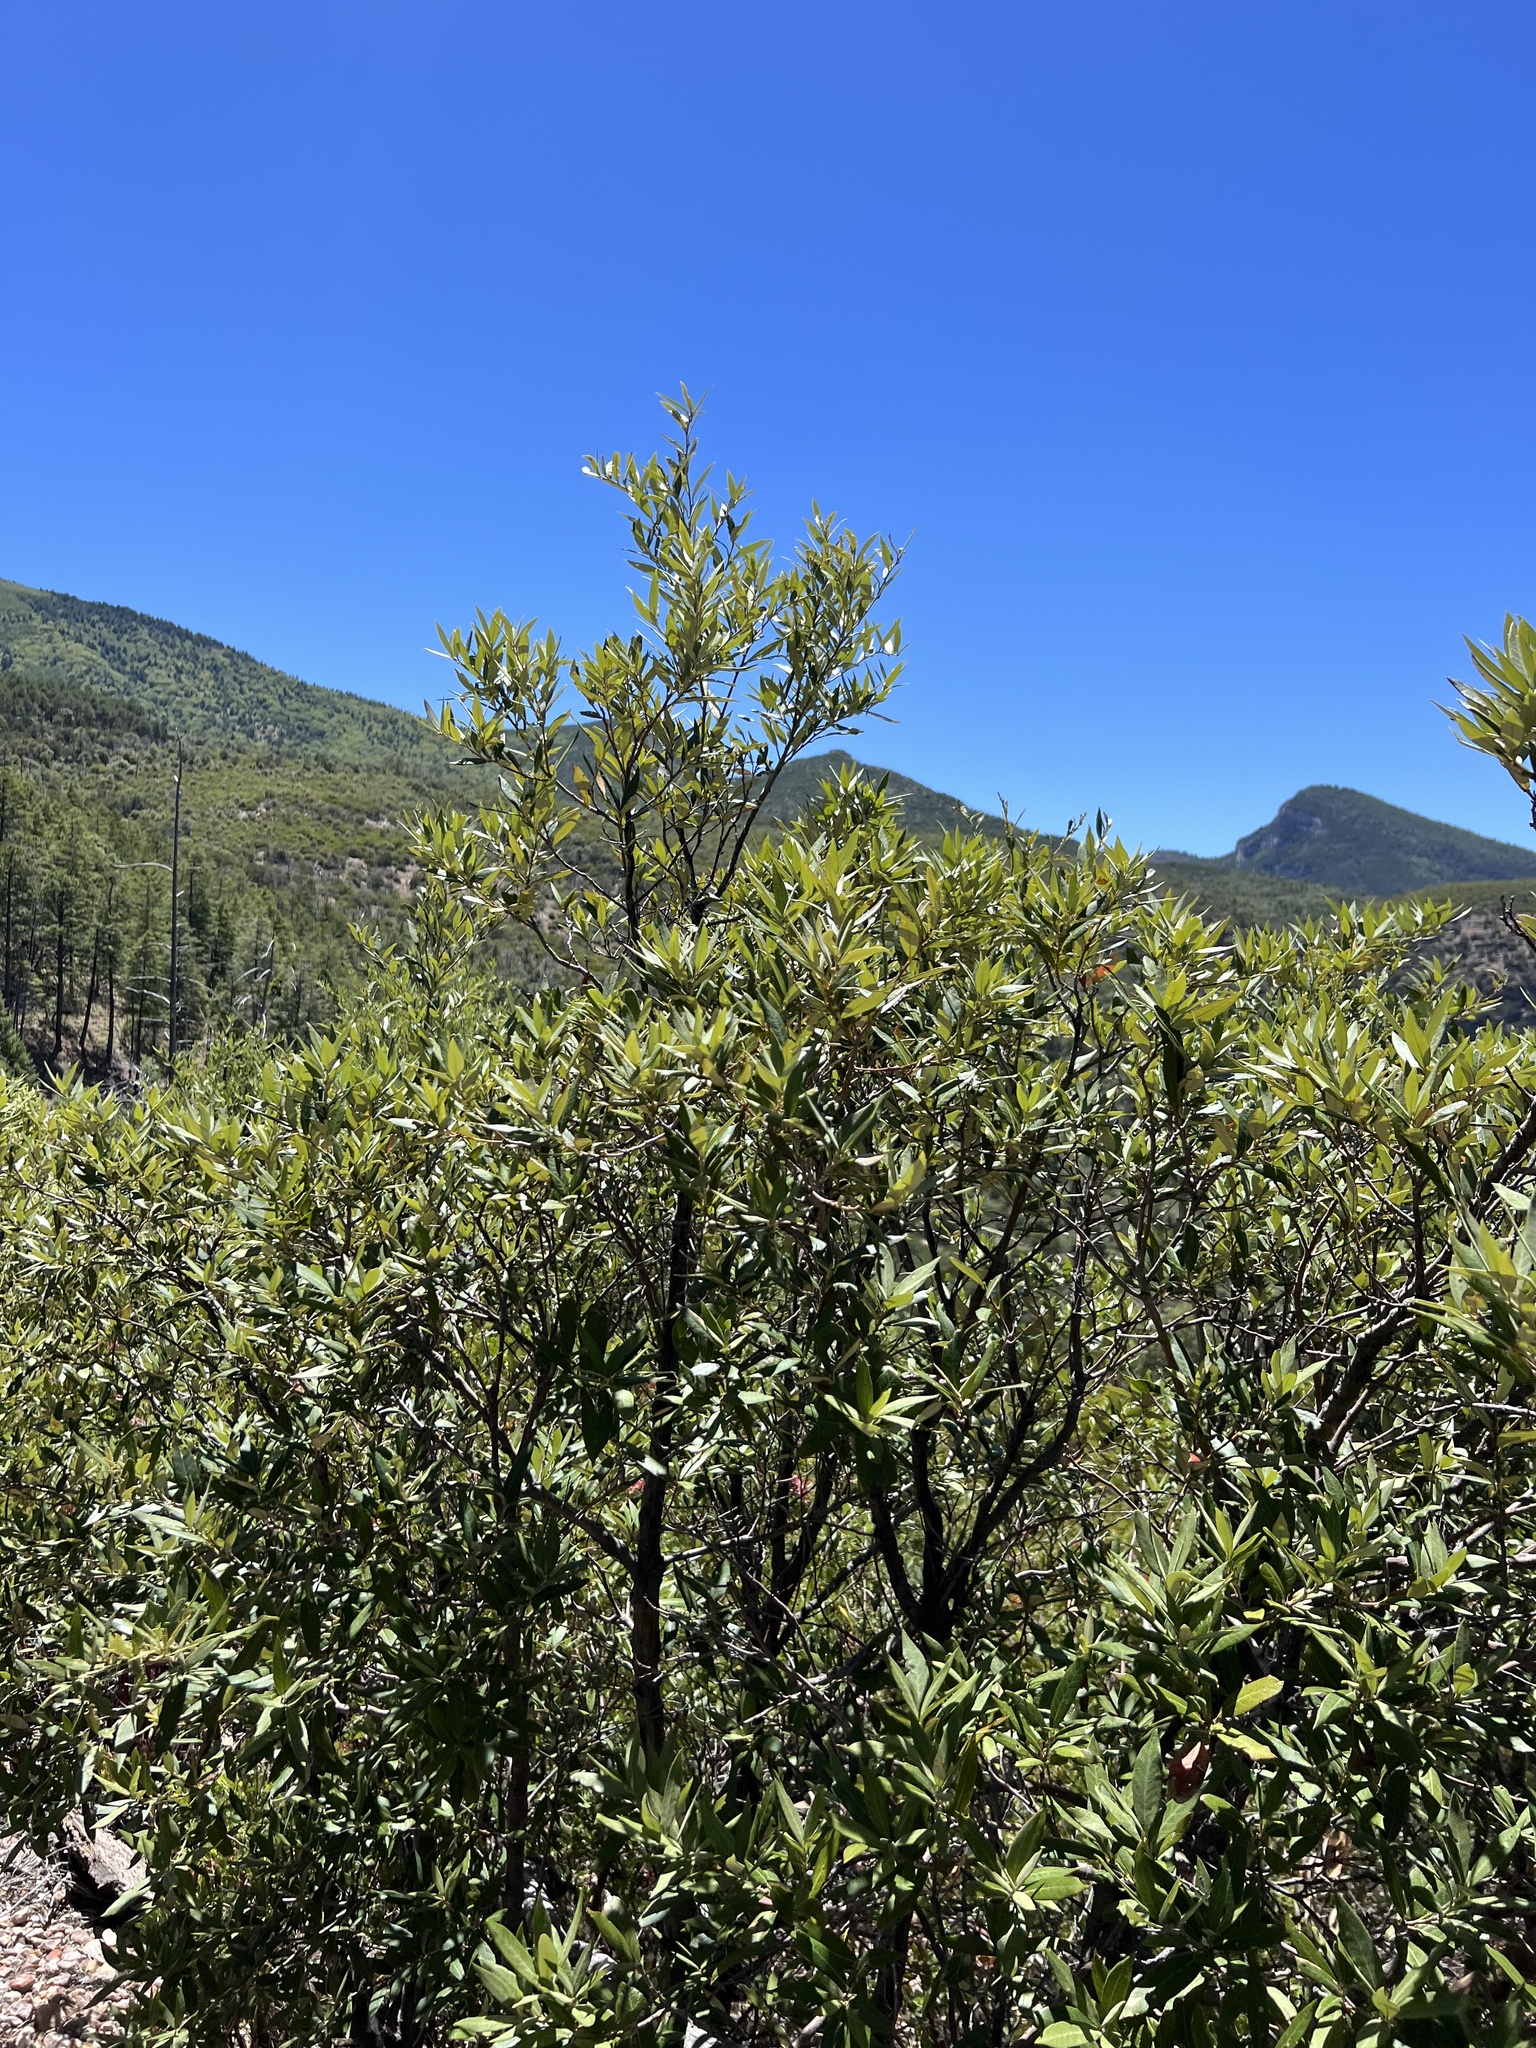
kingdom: Plantae
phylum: Tracheophyta
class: Magnoliopsida
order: Fagales
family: Fagaceae
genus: Quercus
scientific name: Quercus hypoleucoides
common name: Silverleaf oak
